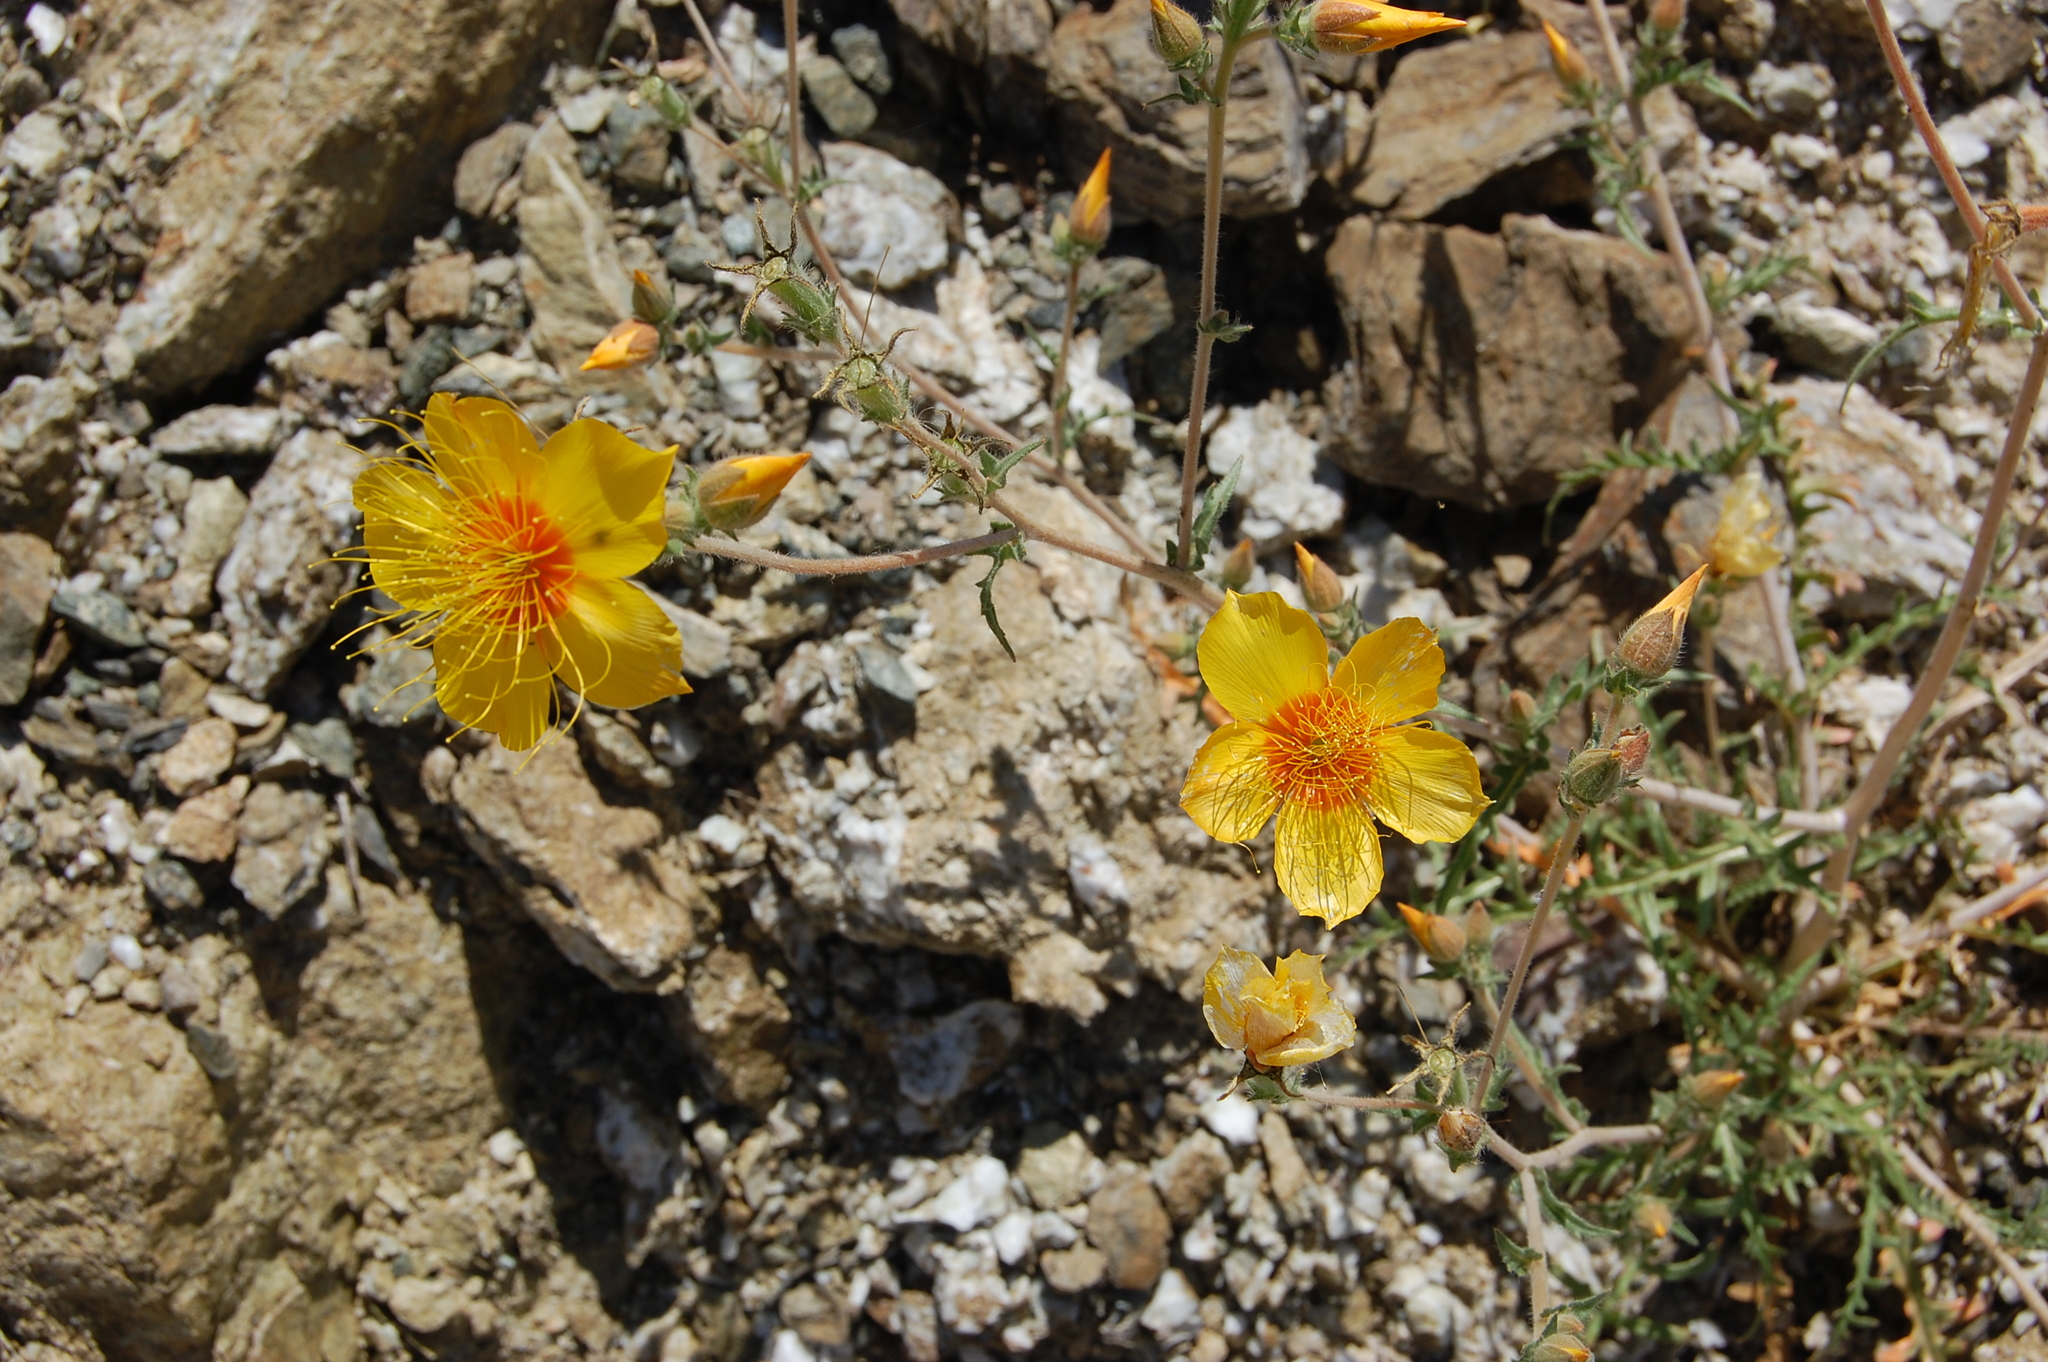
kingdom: Plantae
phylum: Tracheophyta
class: Magnoliopsida
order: Cornales
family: Loasaceae
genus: Mentzelia
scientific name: Mentzelia lindleyi
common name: Golden bartonia
